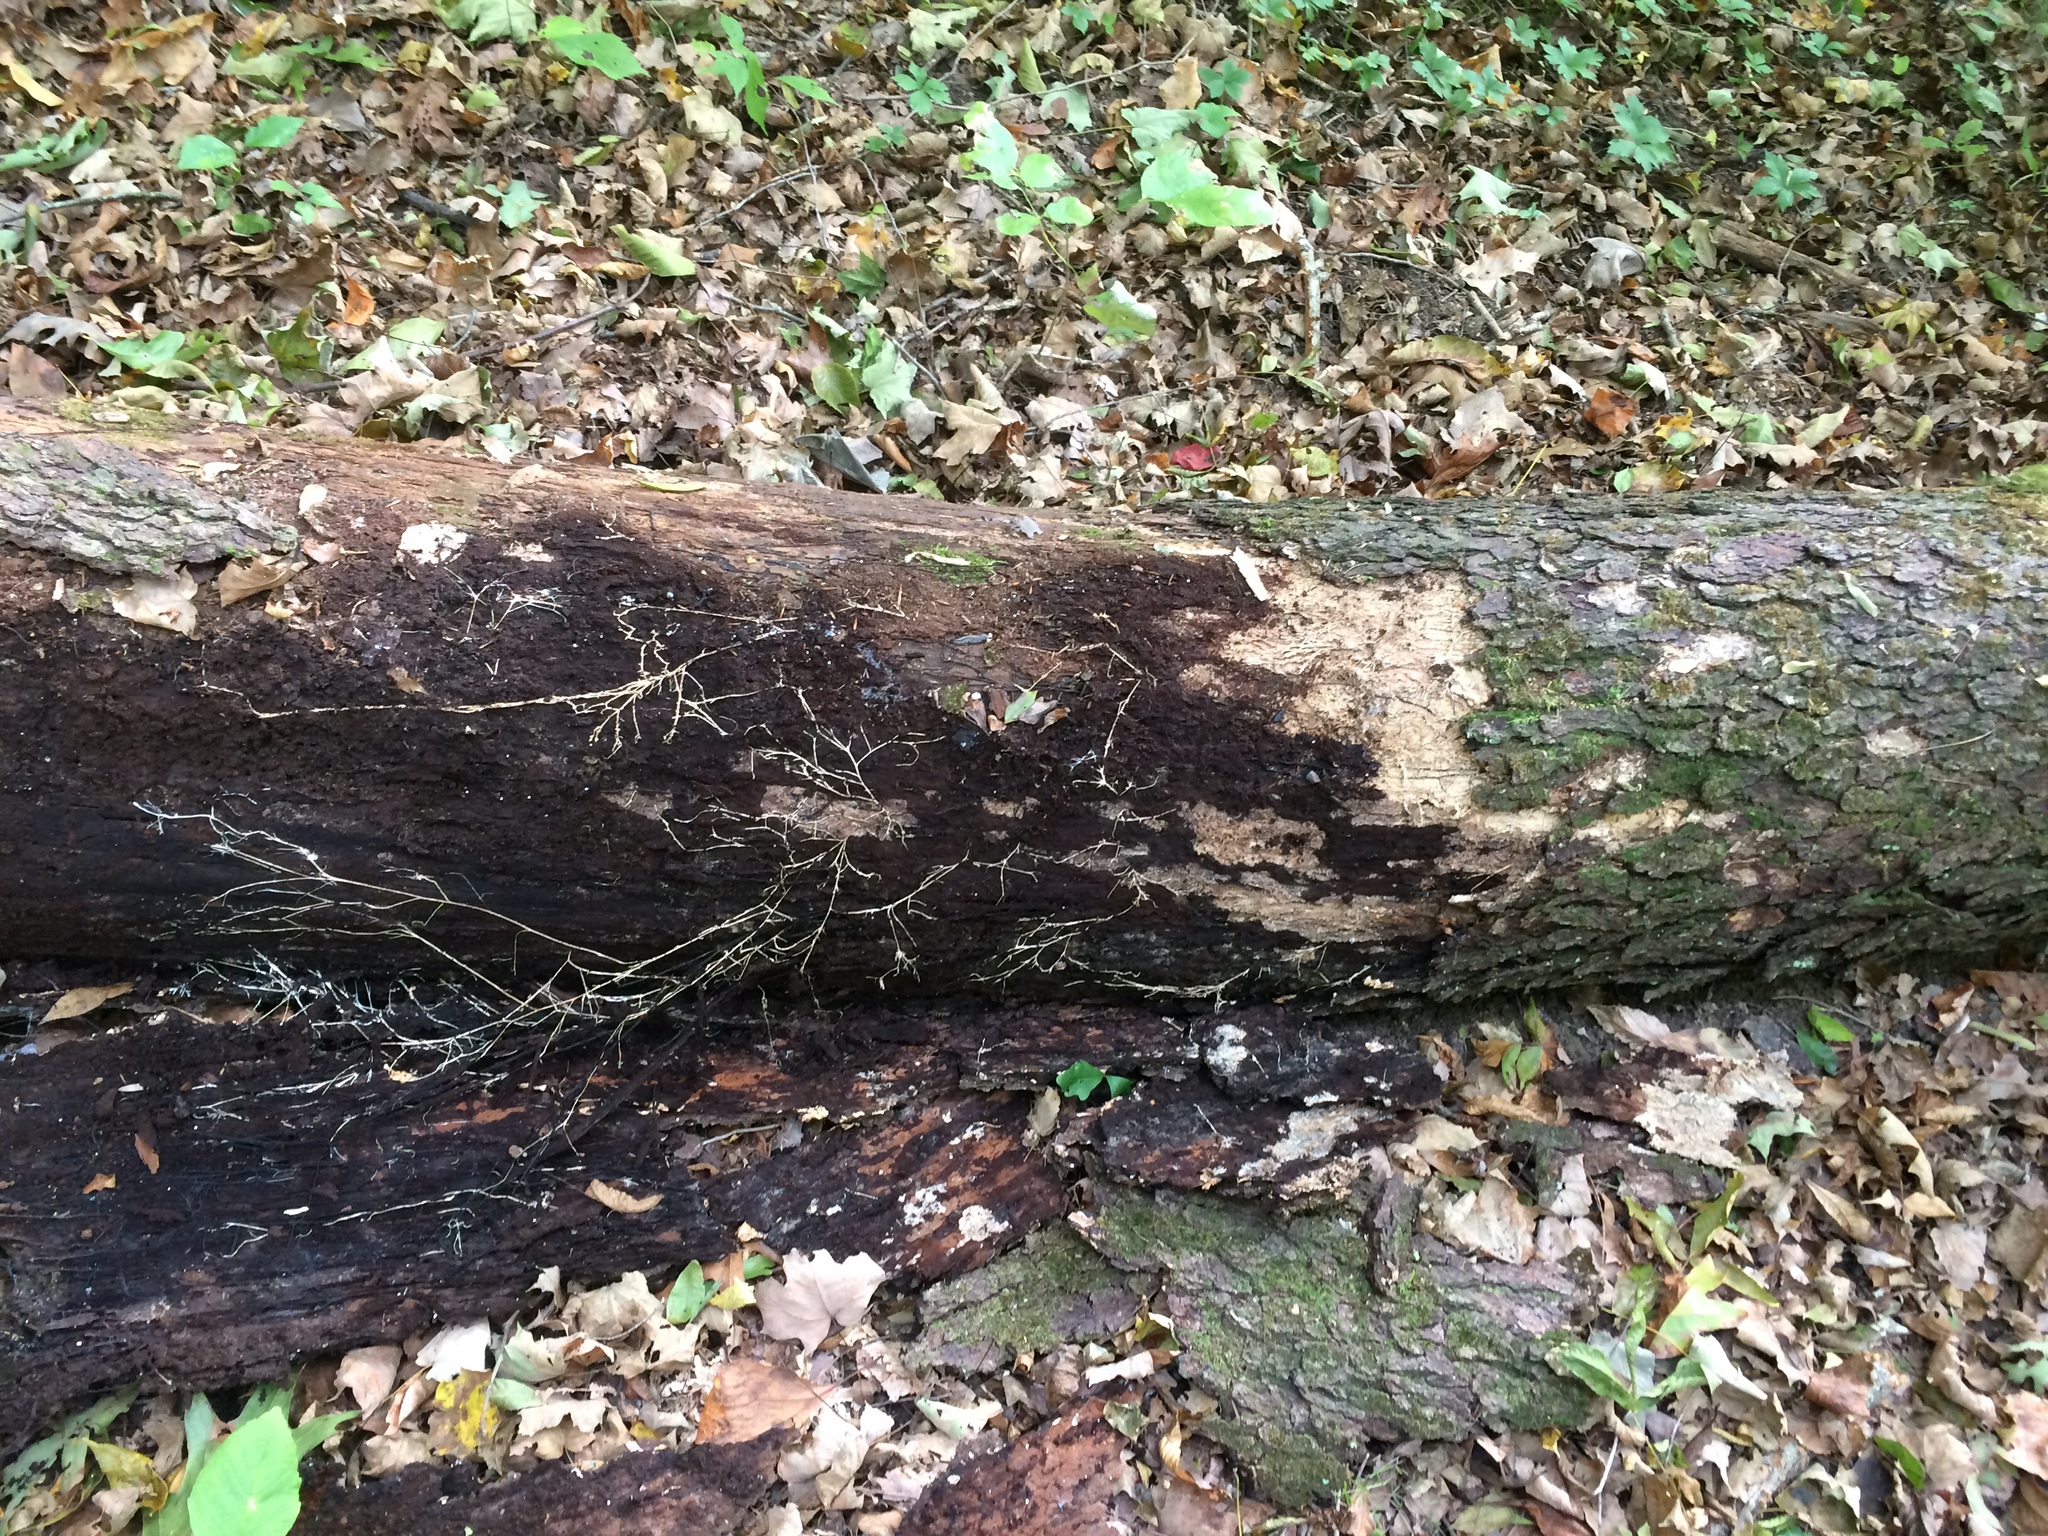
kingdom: Fungi
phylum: Basidiomycota
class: Agaricomycetes
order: Agaricales
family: Marasmiaceae
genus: Gerronema
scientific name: Gerronema strombodes
